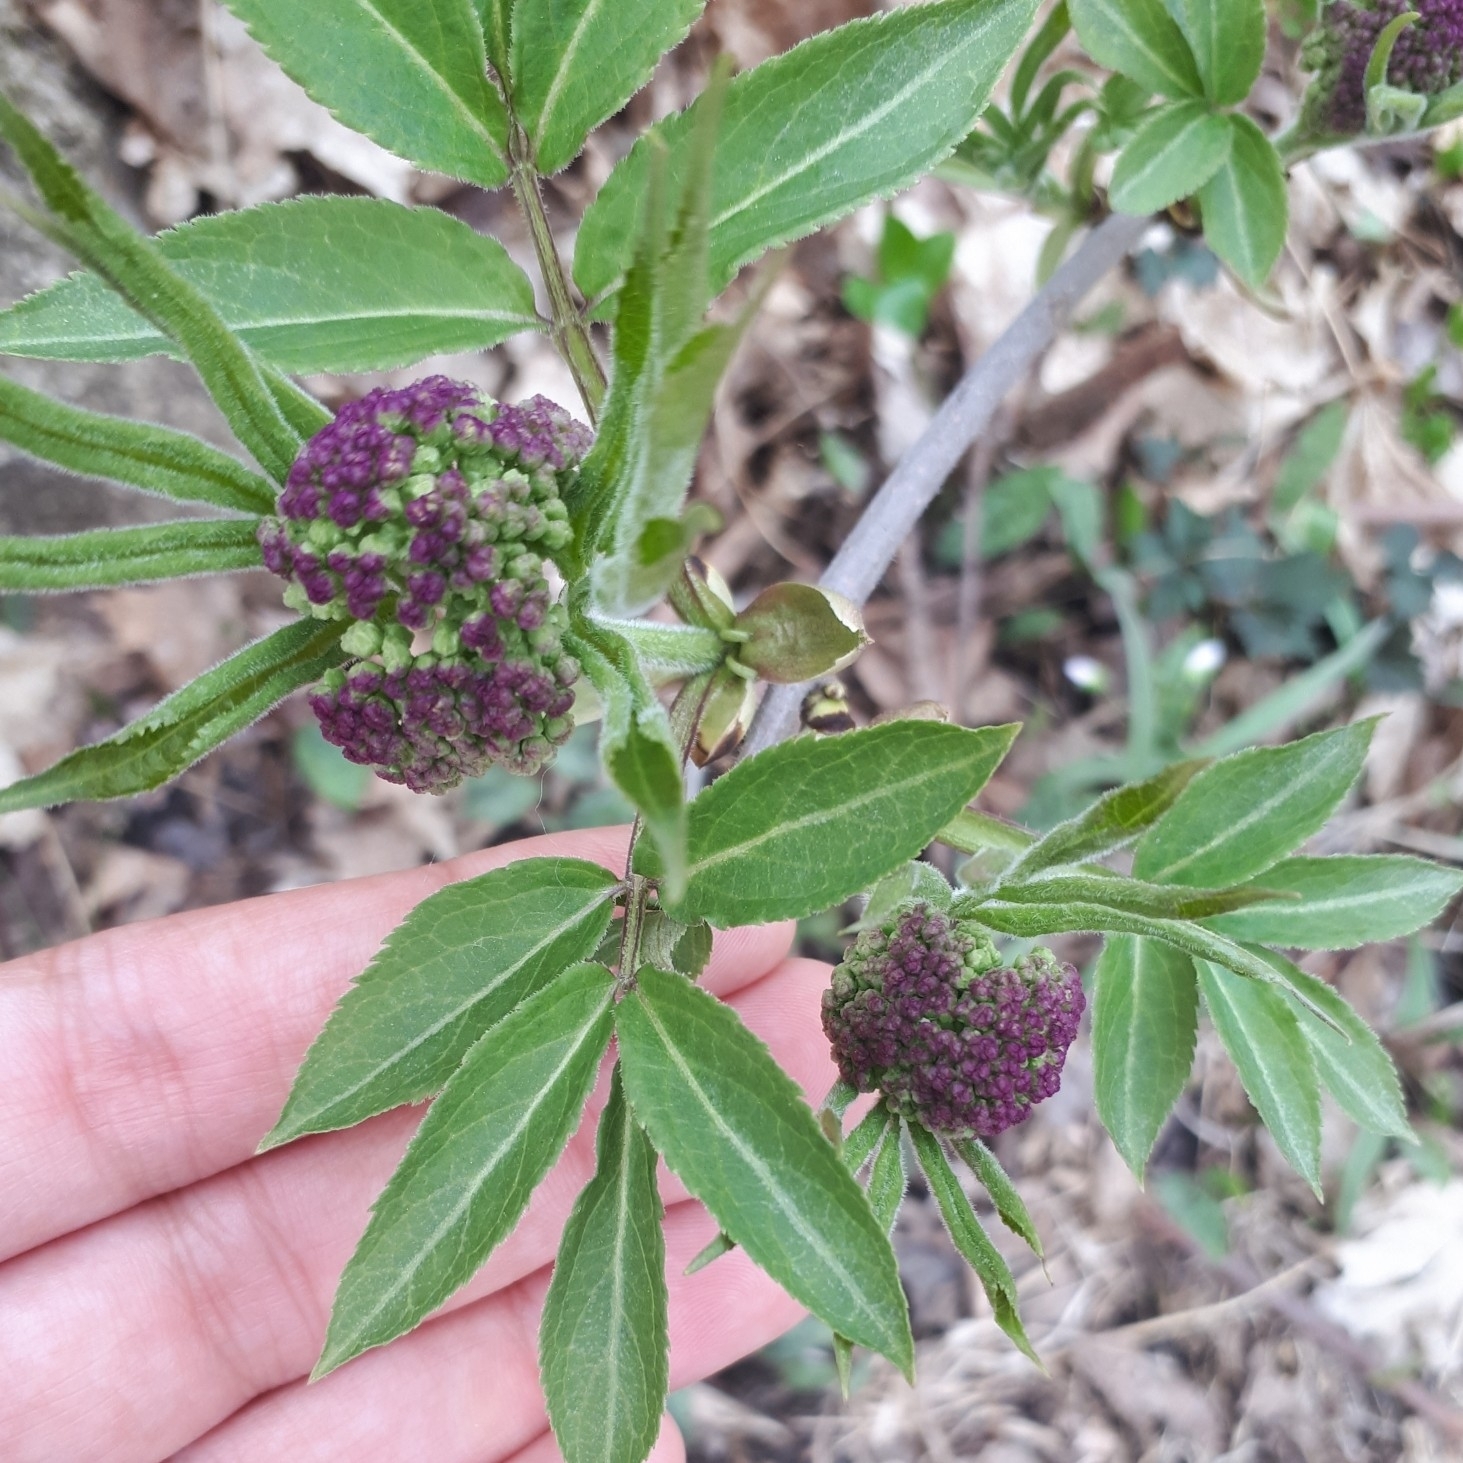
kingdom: Plantae
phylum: Tracheophyta
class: Magnoliopsida
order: Dipsacales
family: Viburnaceae
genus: Sambucus
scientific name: Sambucus racemosa
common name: Red-berried elder
